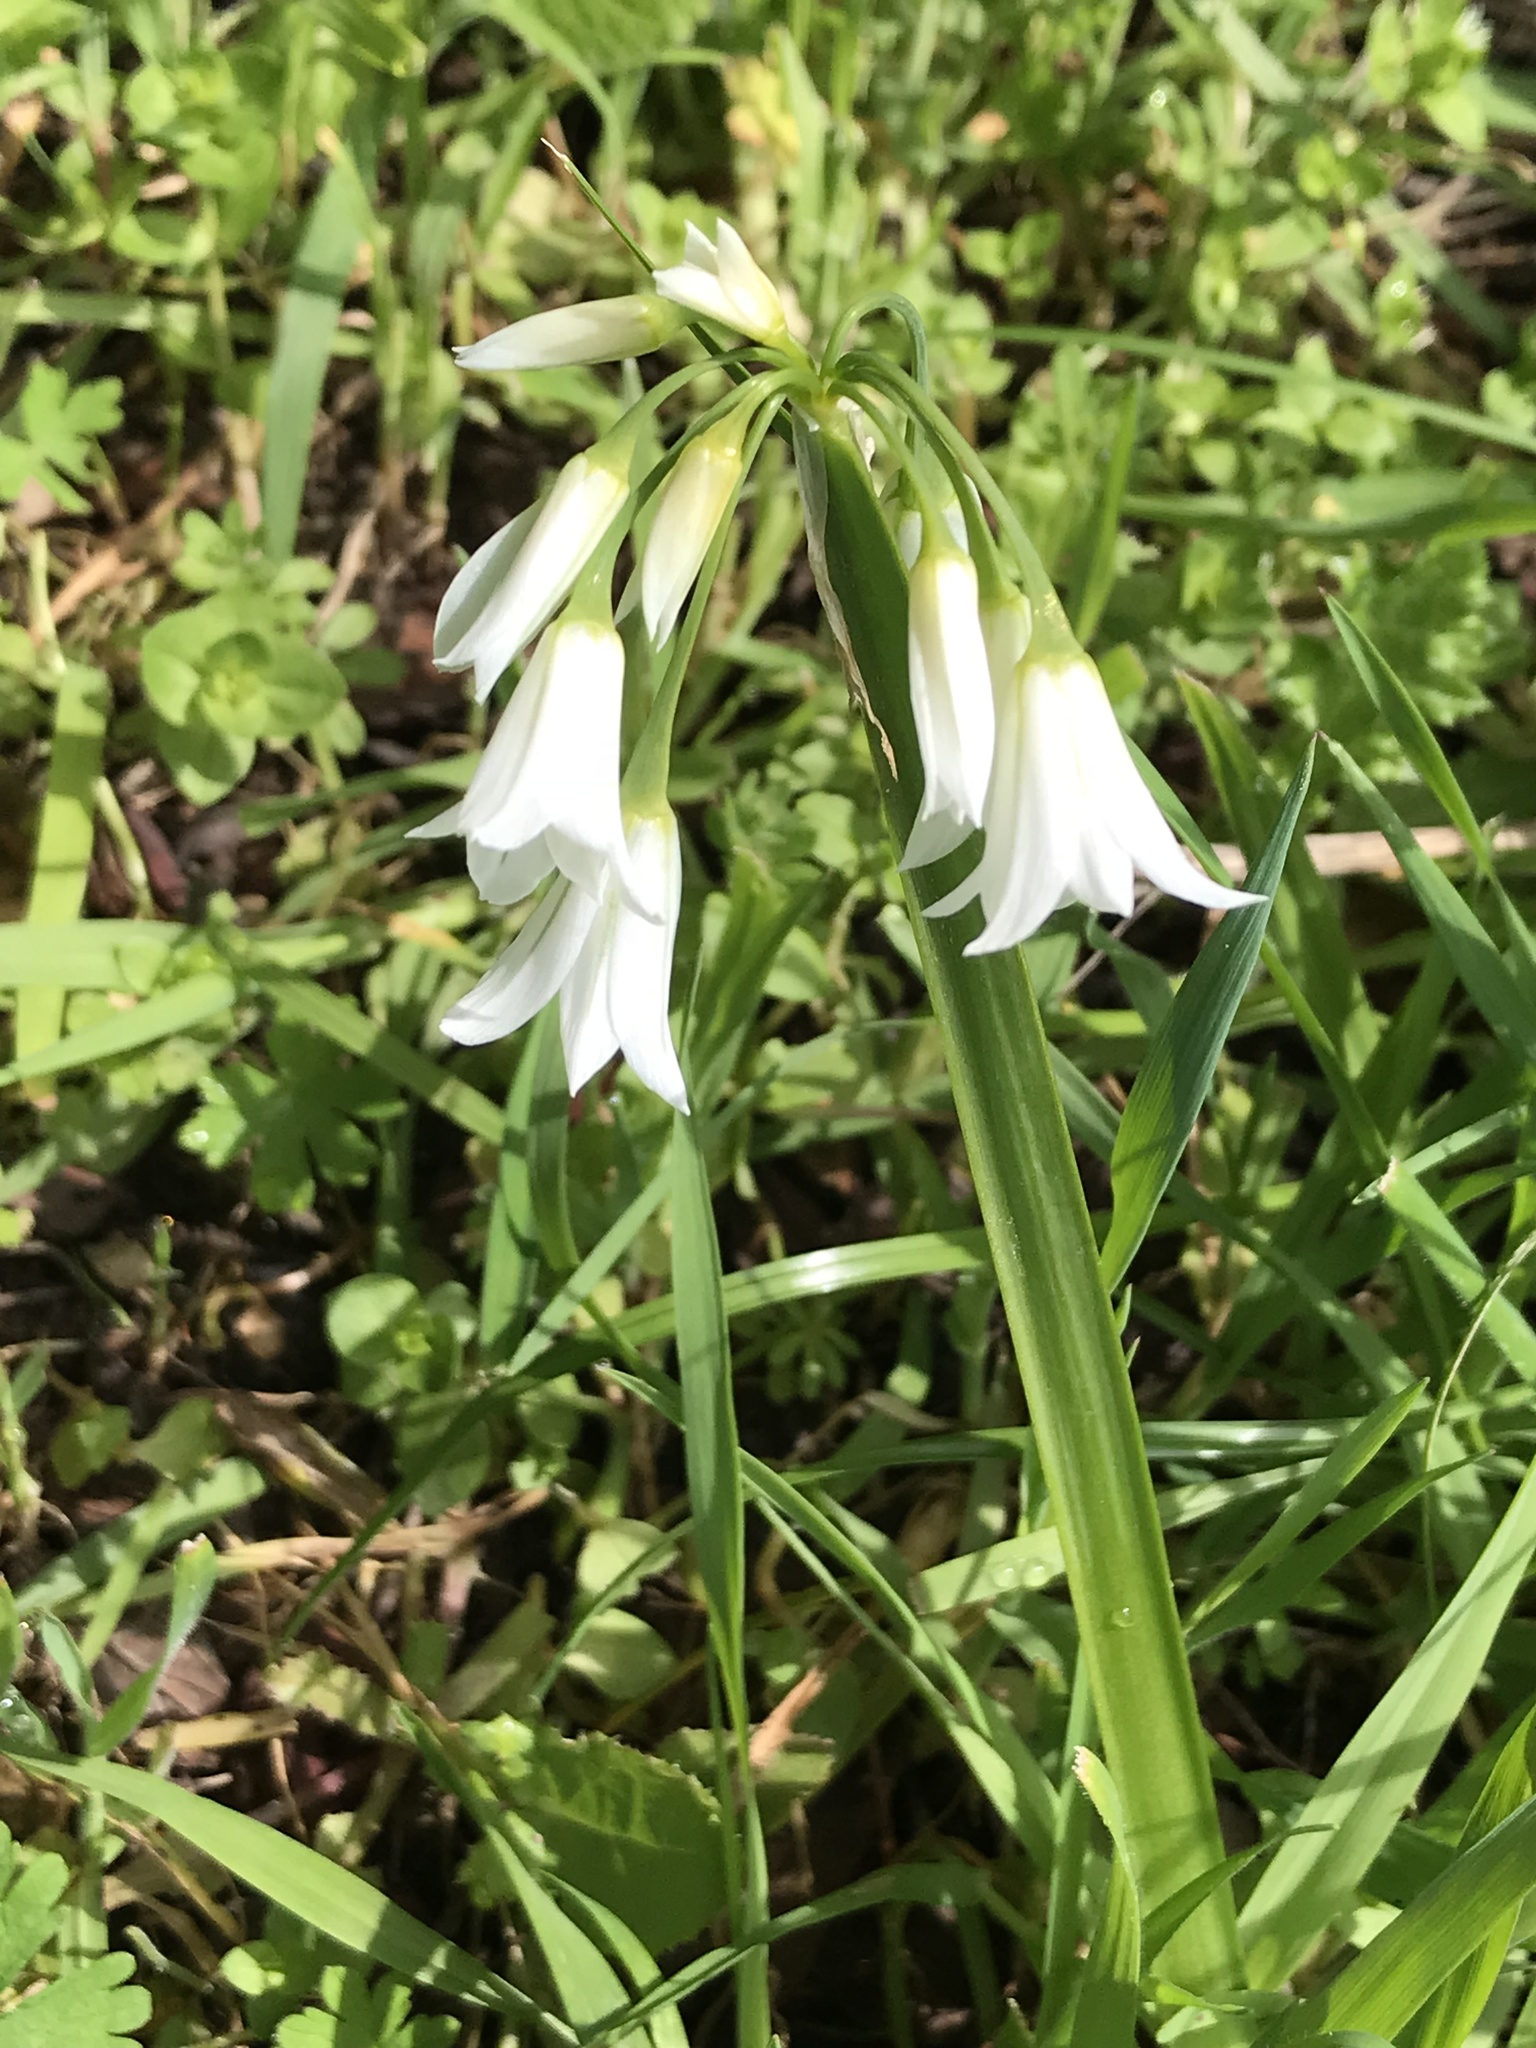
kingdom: Plantae
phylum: Tracheophyta
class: Liliopsida
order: Asparagales
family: Amaryllidaceae
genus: Allium
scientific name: Allium triquetrum
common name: Three-cornered garlic
